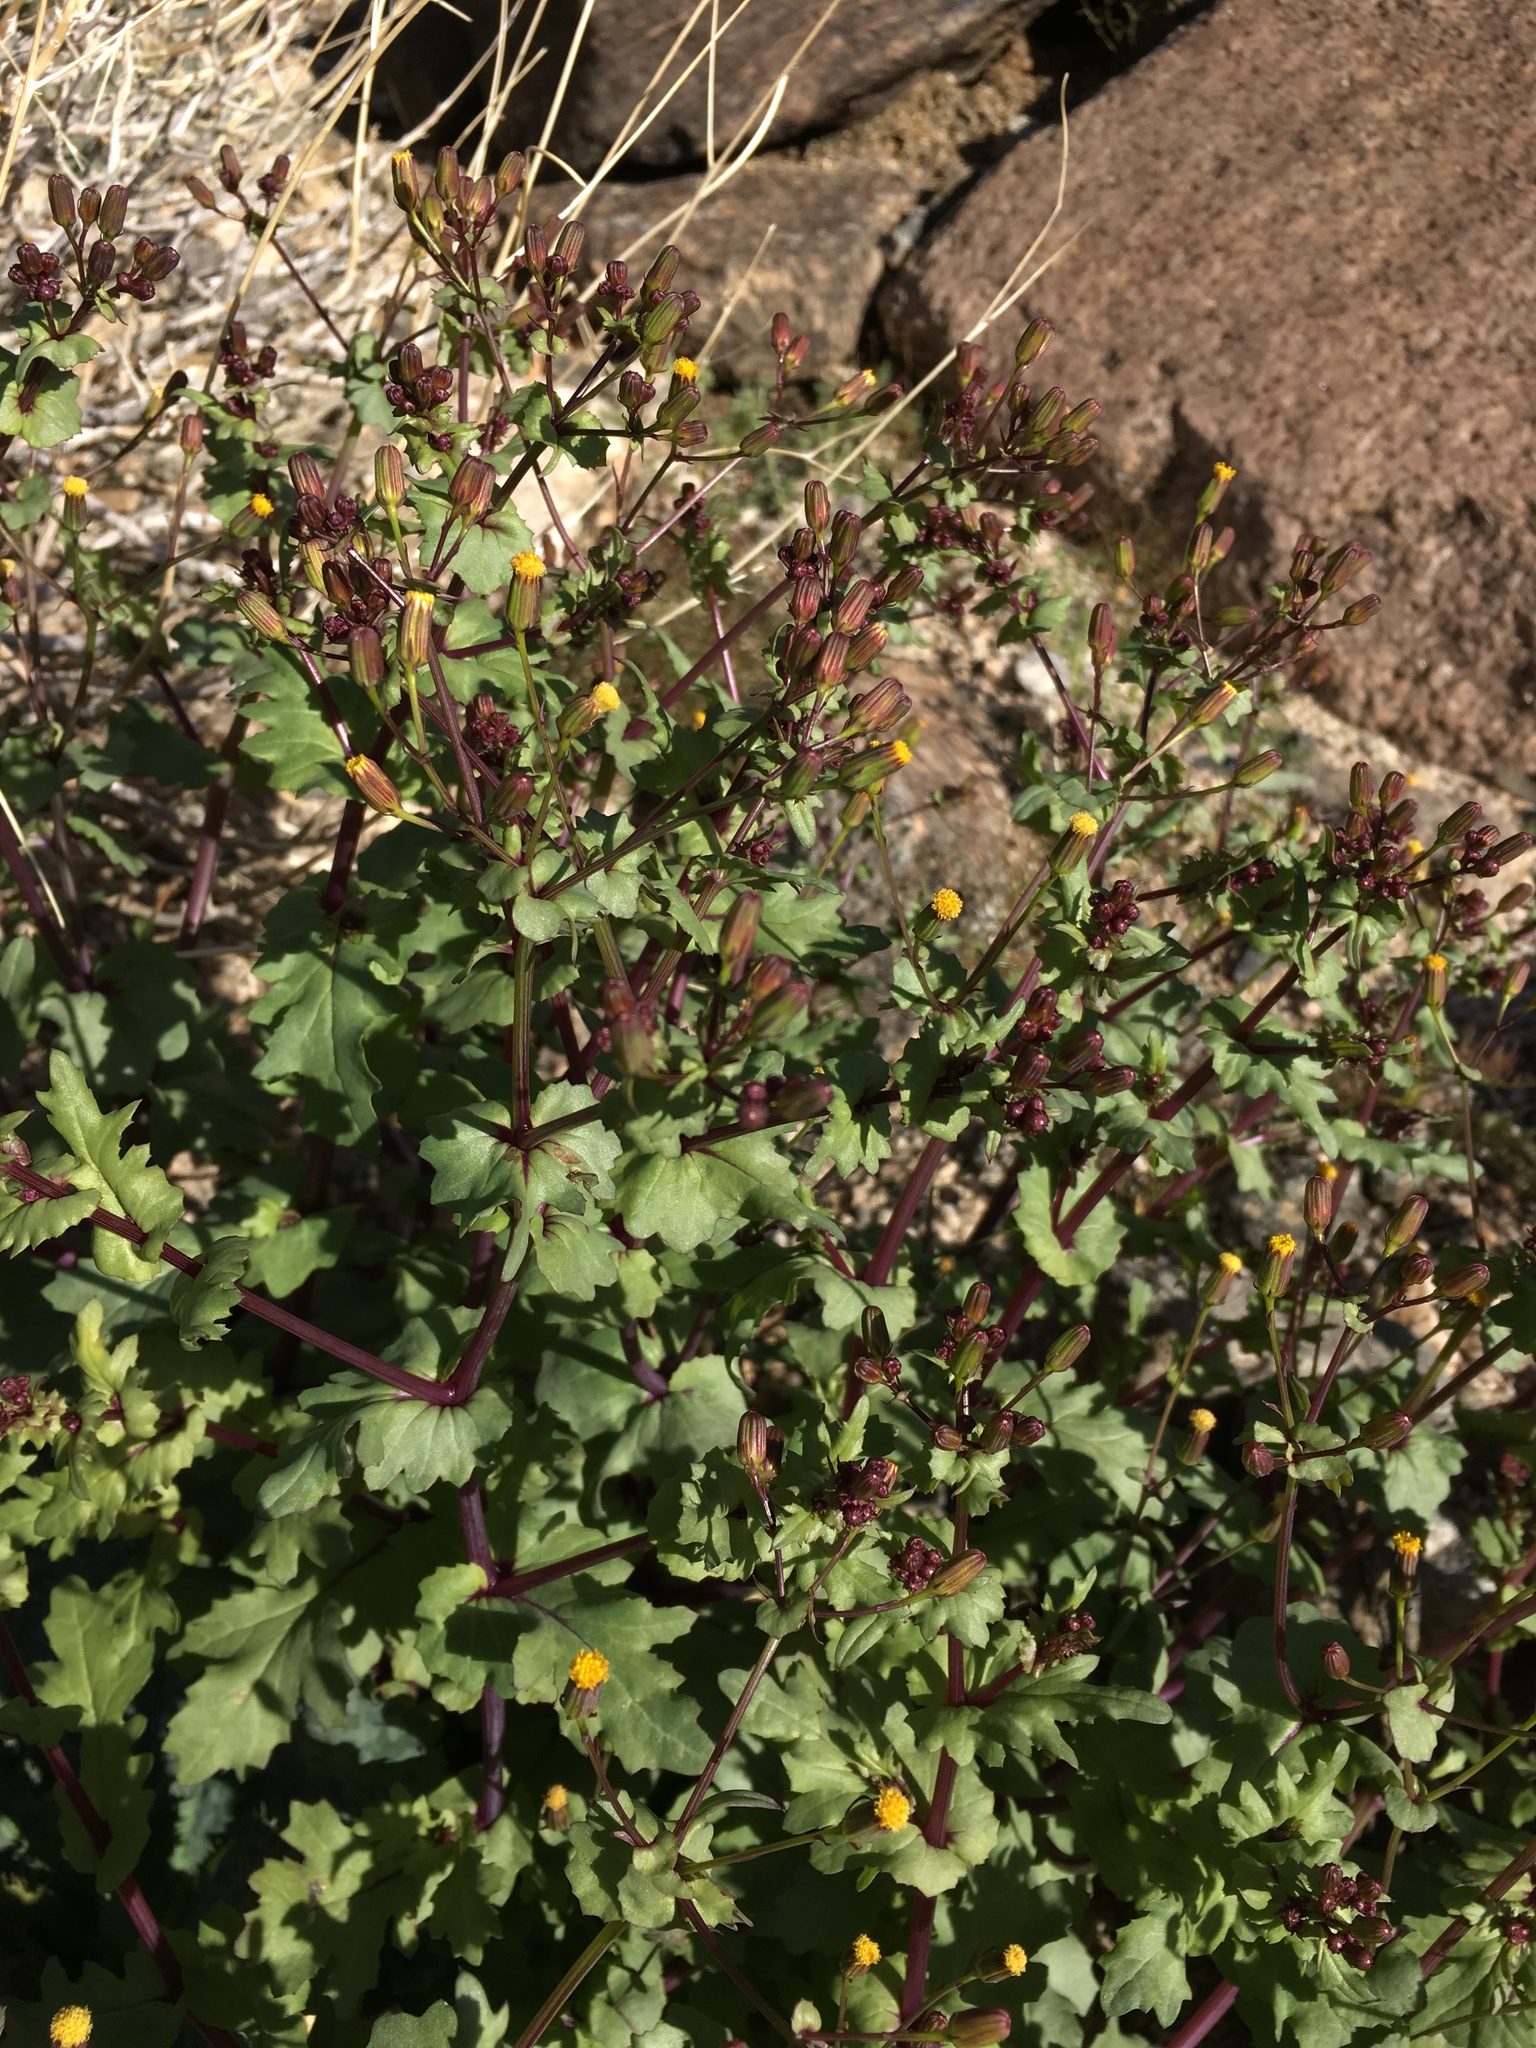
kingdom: Plantae
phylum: Tracheophyta
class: Magnoliopsida
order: Asterales
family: Asteraceae
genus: Senecio
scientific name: Senecio mohavensis
